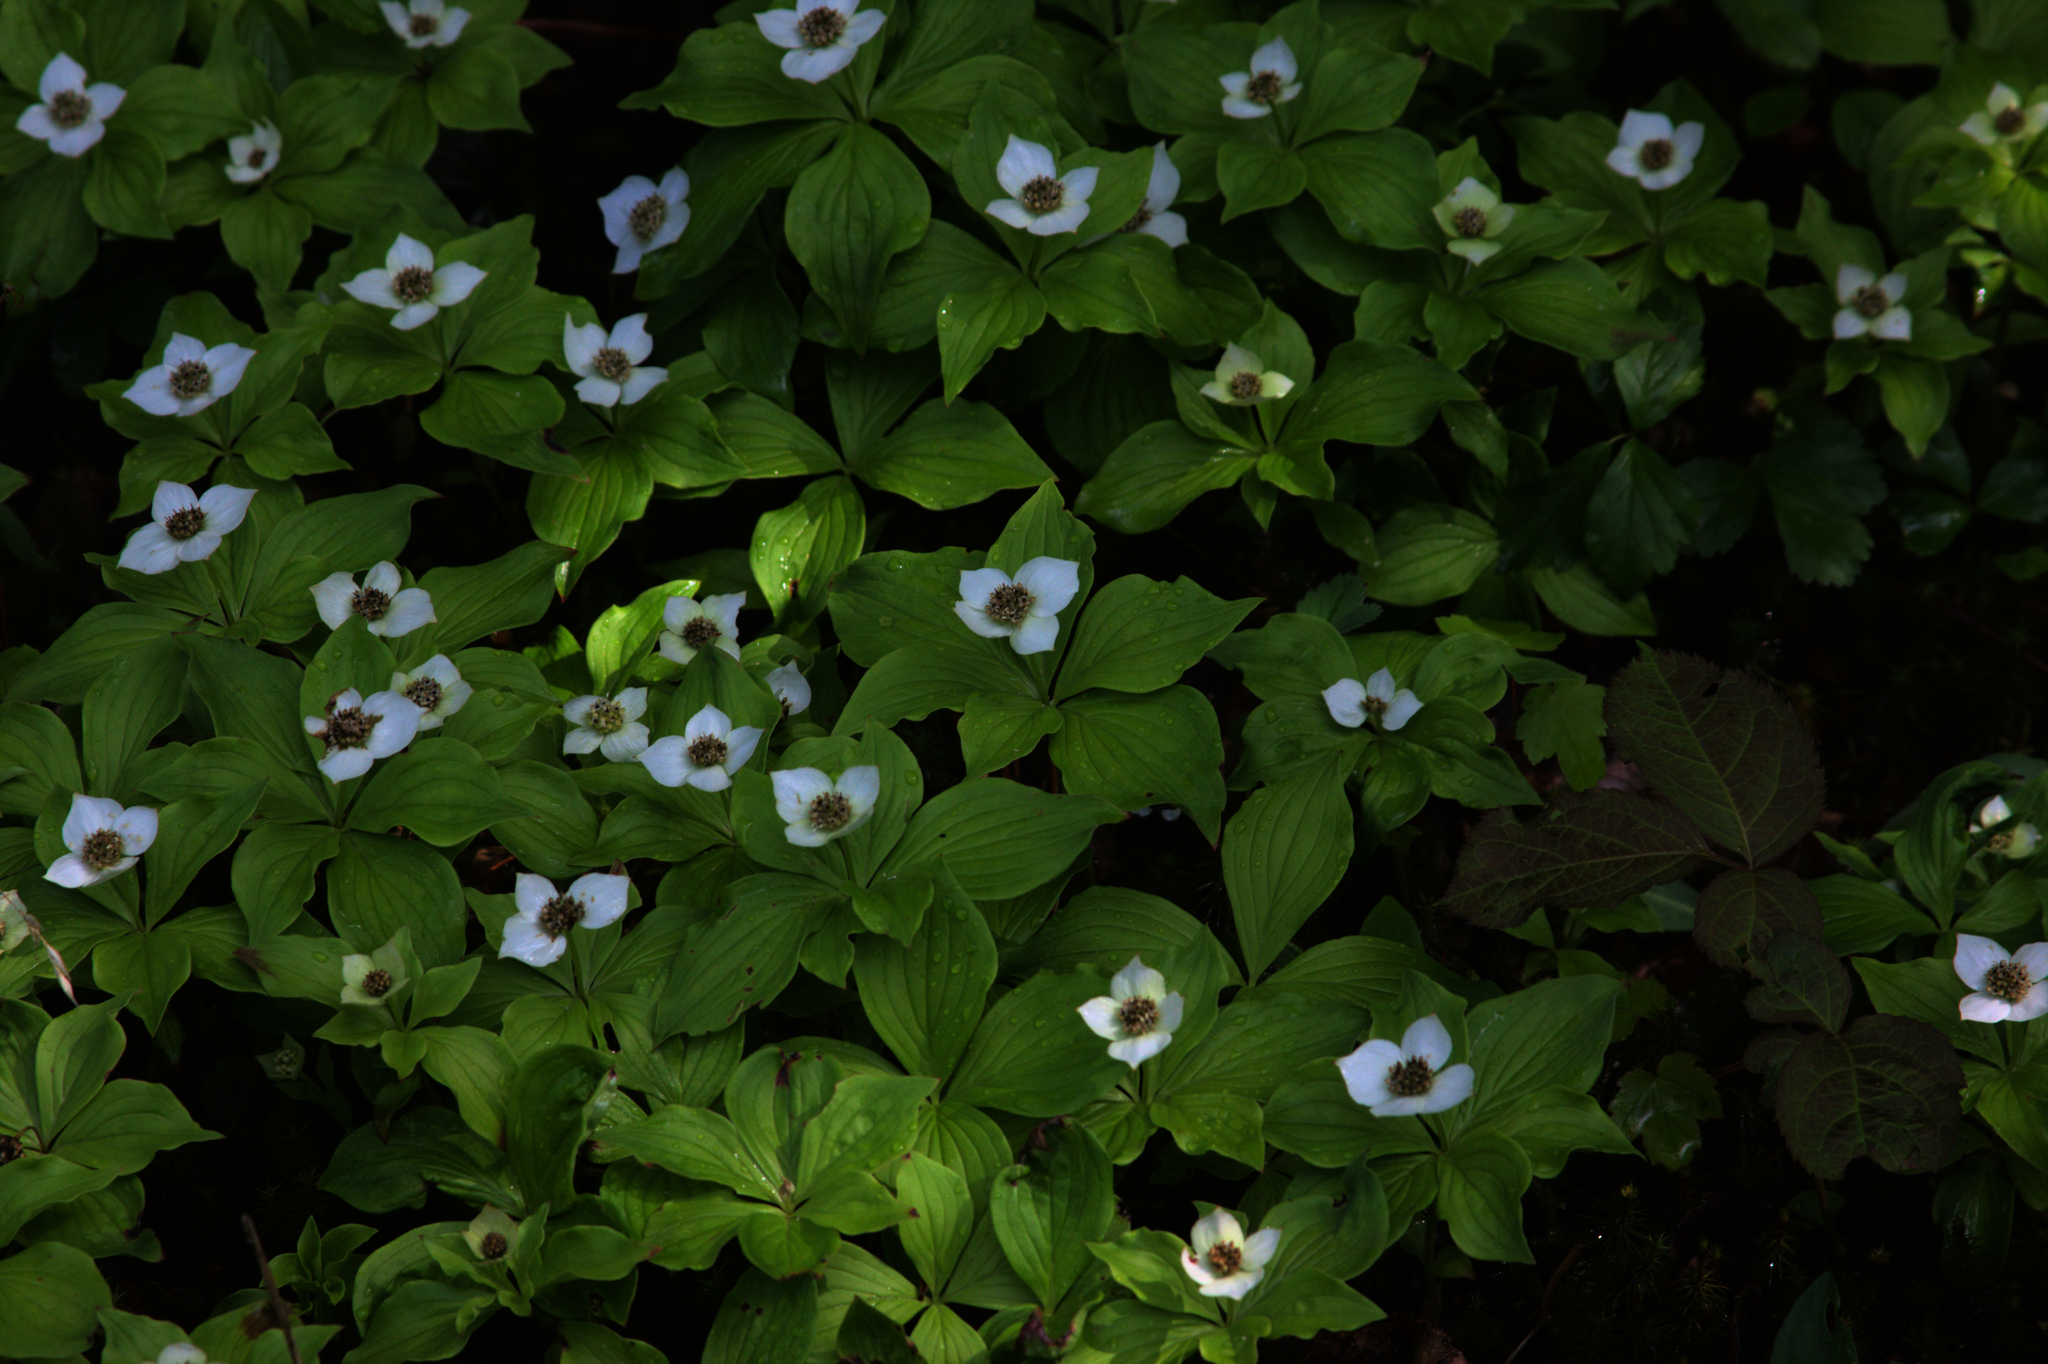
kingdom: Plantae
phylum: Tracheophyta
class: Magnoliopsida
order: Cornales
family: Cornaceae
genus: Cornus
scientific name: Cornus canadensis
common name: Creeping dogwood
